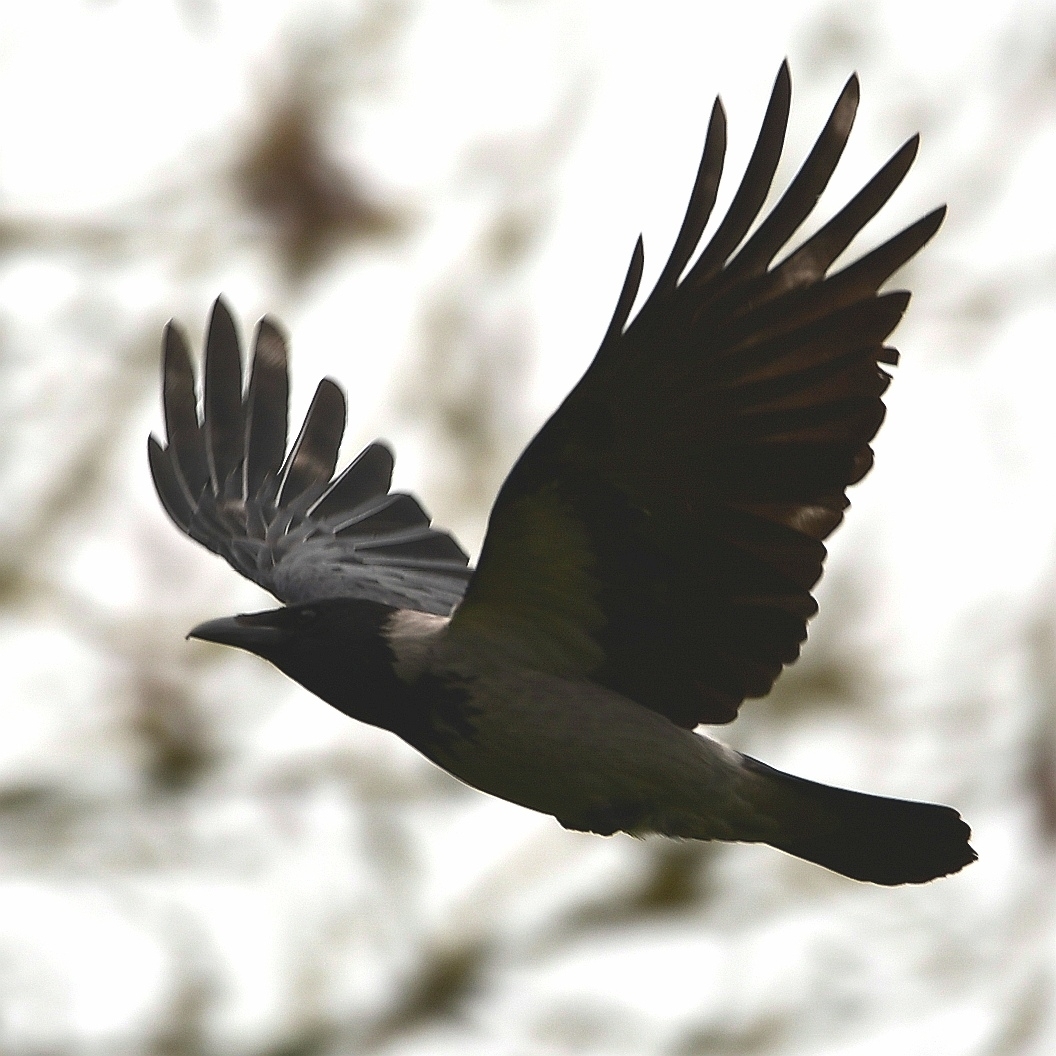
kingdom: Animalia
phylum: Chordata
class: Aves
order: Passeriformes
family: Corvidae
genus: Corvus
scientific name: Corvus cornix
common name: Hooded crow
